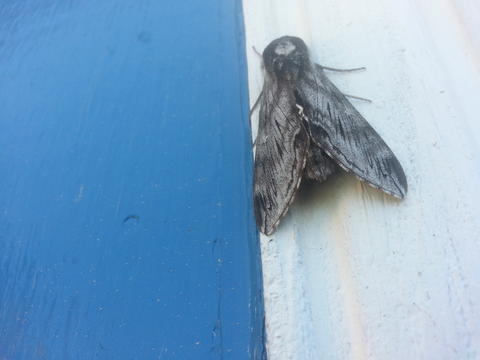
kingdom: Animalia
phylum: Arthropoda
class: Insecta
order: Lepidoptera
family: Sphingidae
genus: Sphinx
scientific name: Sphinx poecila
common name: Northern apple sphinx
